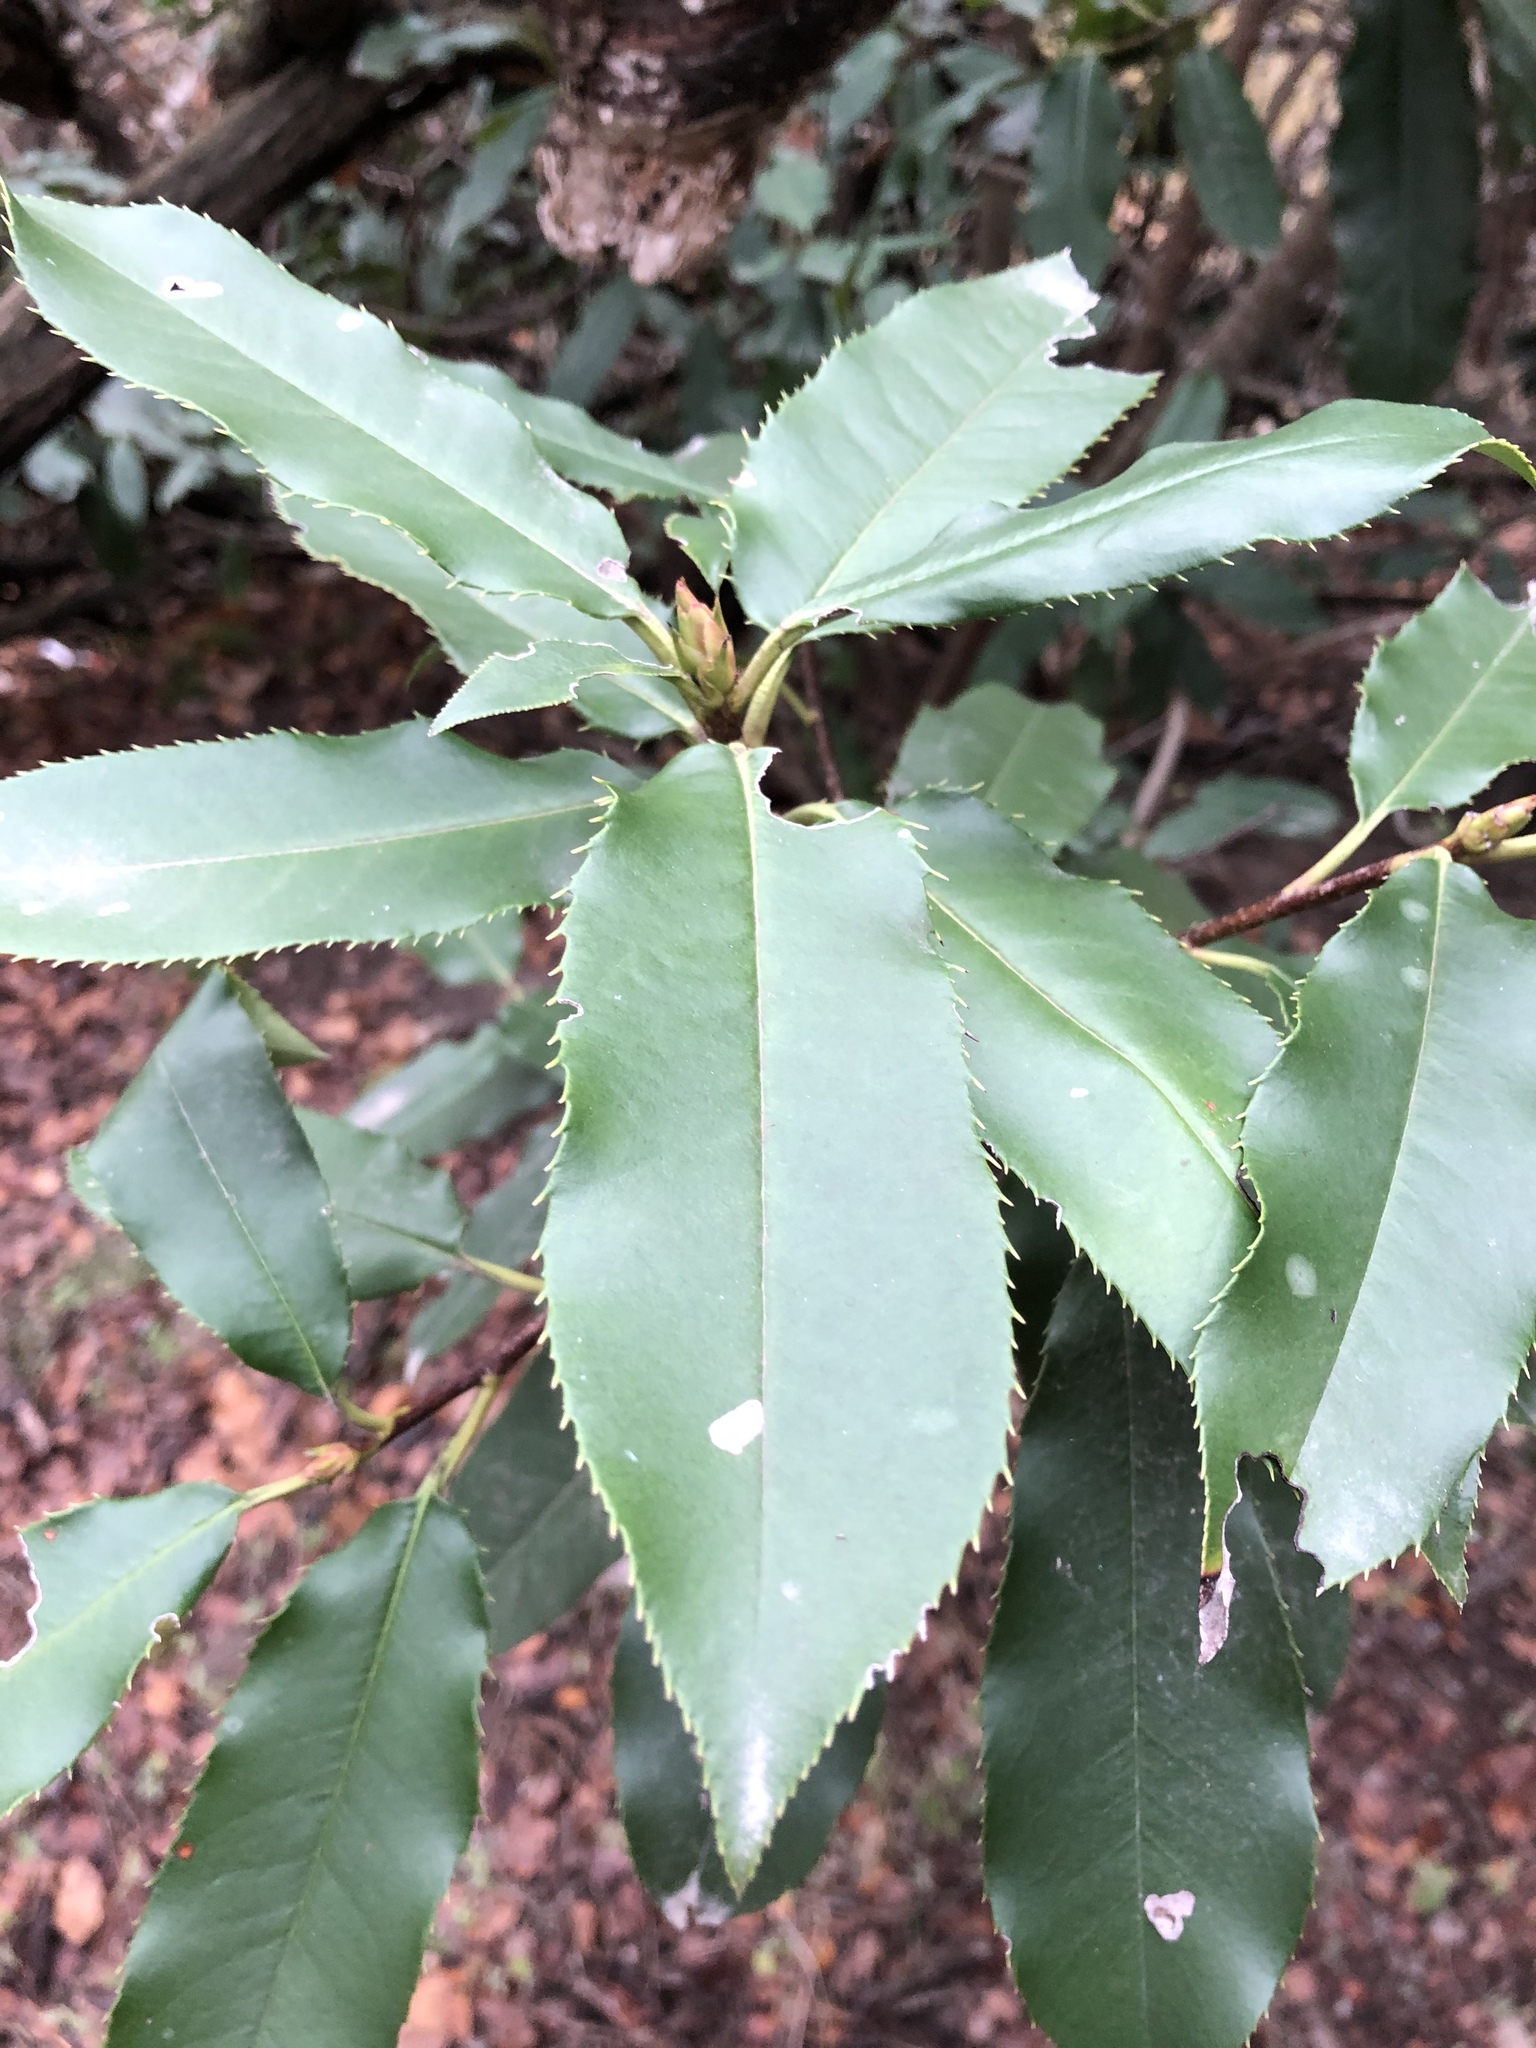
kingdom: Plantae
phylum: Tracheophyta
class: Magnoliopsida
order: Rosales
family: Rosaceae
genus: Photinia
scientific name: Photinia serratifolia
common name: Taiwanese photinia
